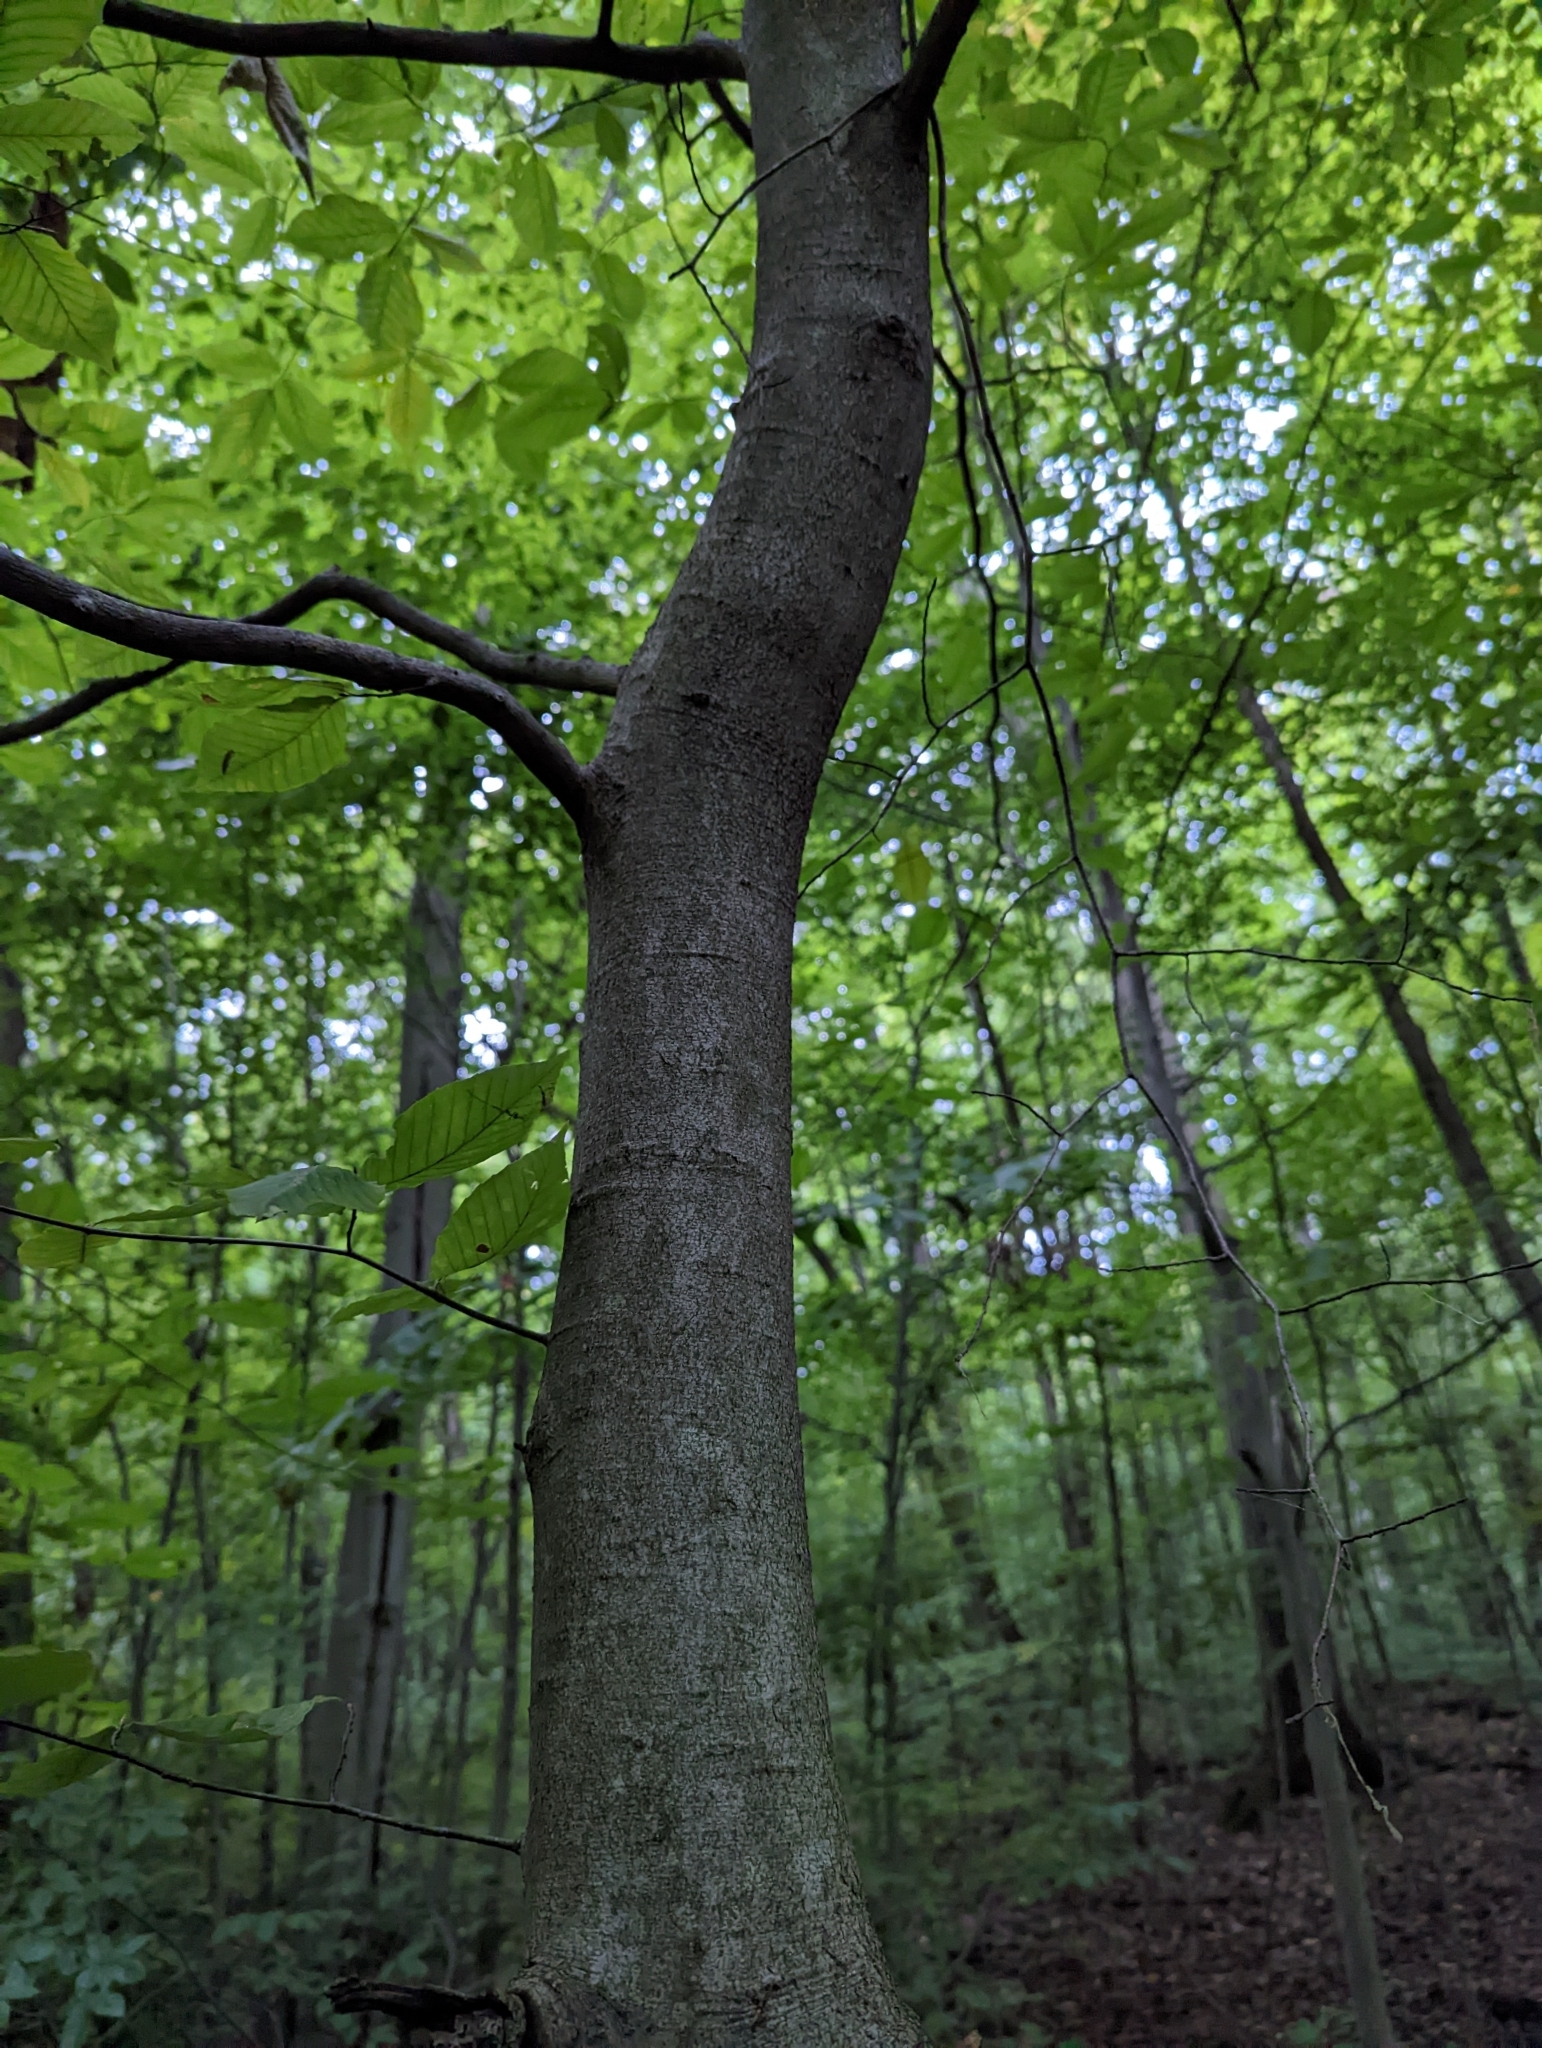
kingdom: Plantae
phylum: Tracheophyta
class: Magnoliopsida
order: Fagales
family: Fagaceae
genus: Fagus
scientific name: Fagus grandifolia
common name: American beech
